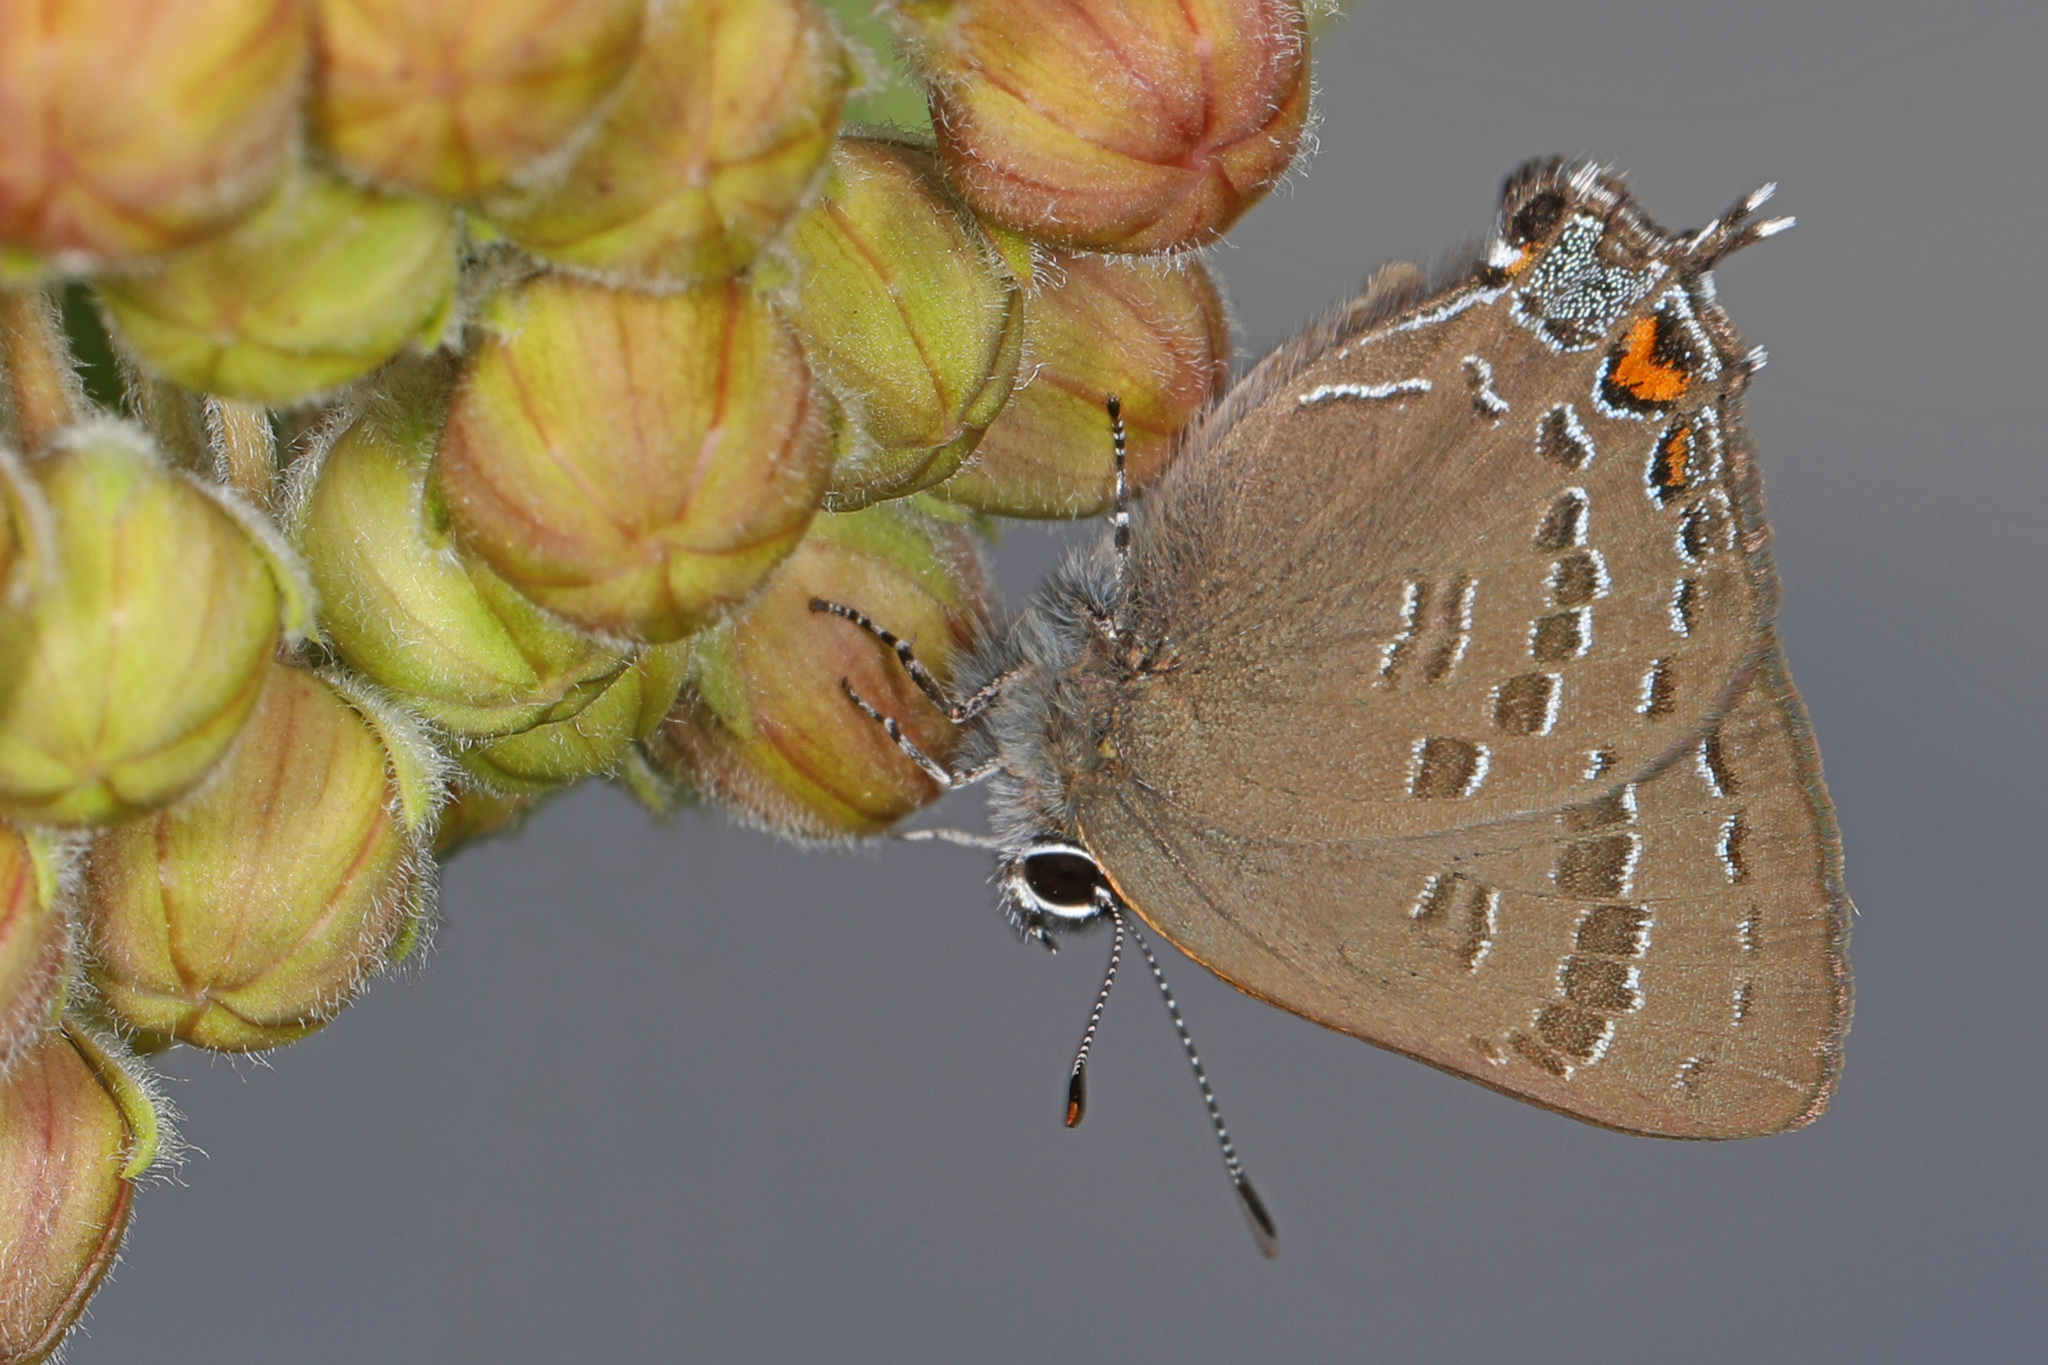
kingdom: Animalia
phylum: Arthropoda
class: Insecta
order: Lepidoptera
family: Lycaenidae
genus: Satyrium
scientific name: Satyrium calanus
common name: Banded hairstreak
